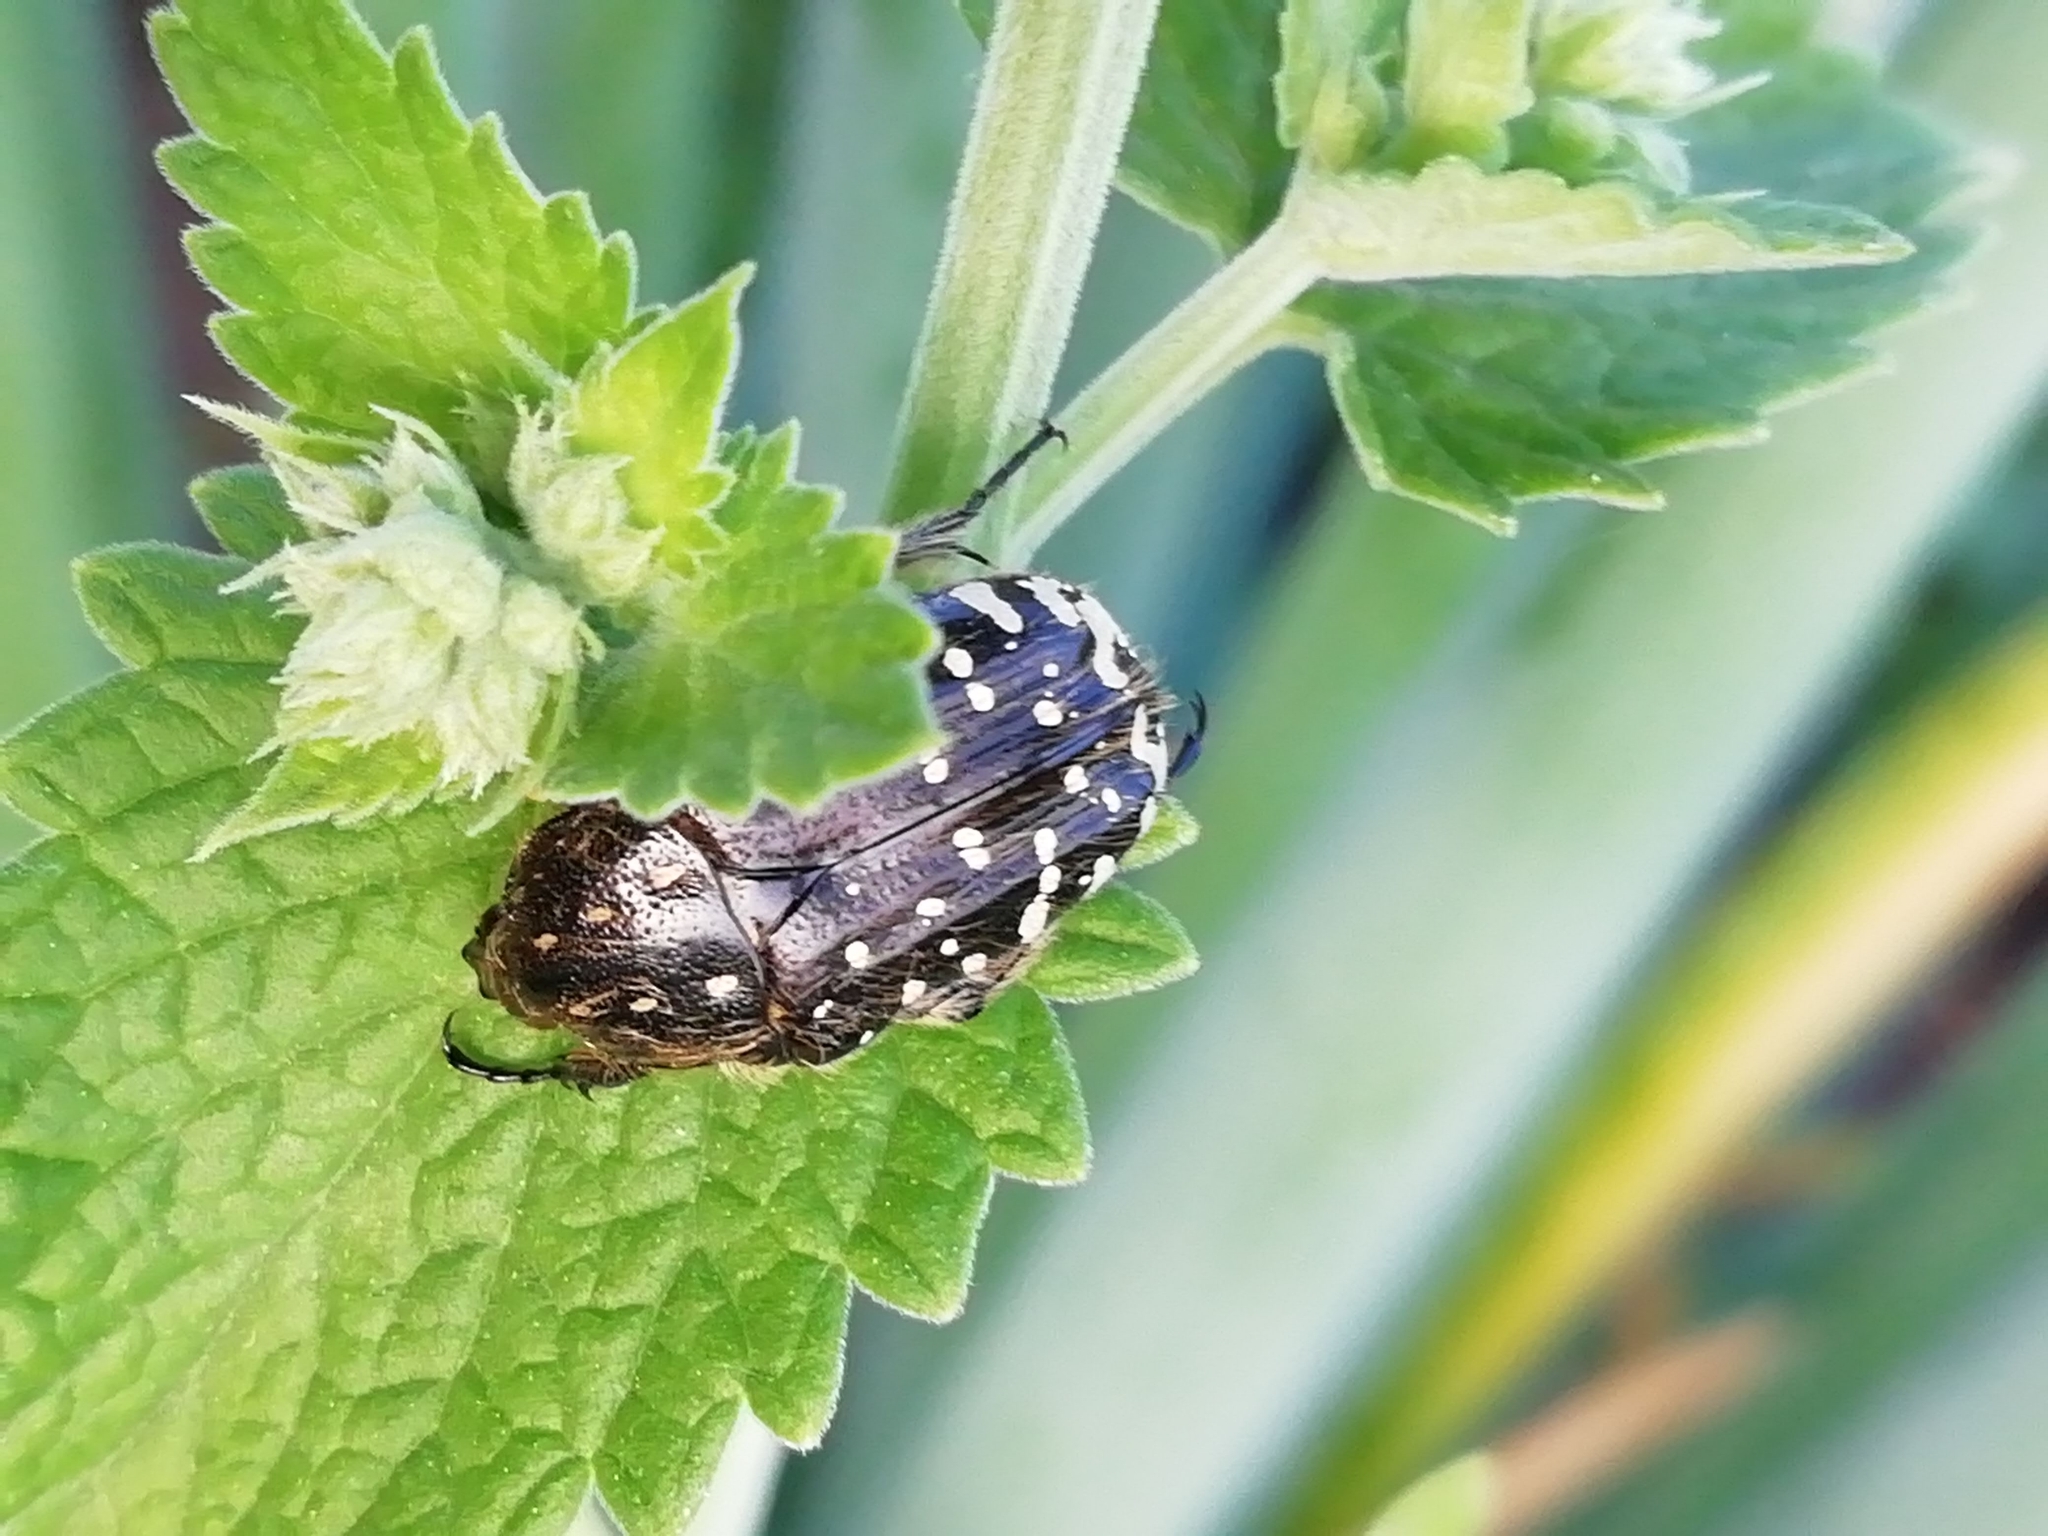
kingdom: Animalia
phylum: Arthropoda
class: Insecta
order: Coleoptera
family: Scarabaeidae
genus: Oxythyrea
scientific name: Oxythyrea funesta
